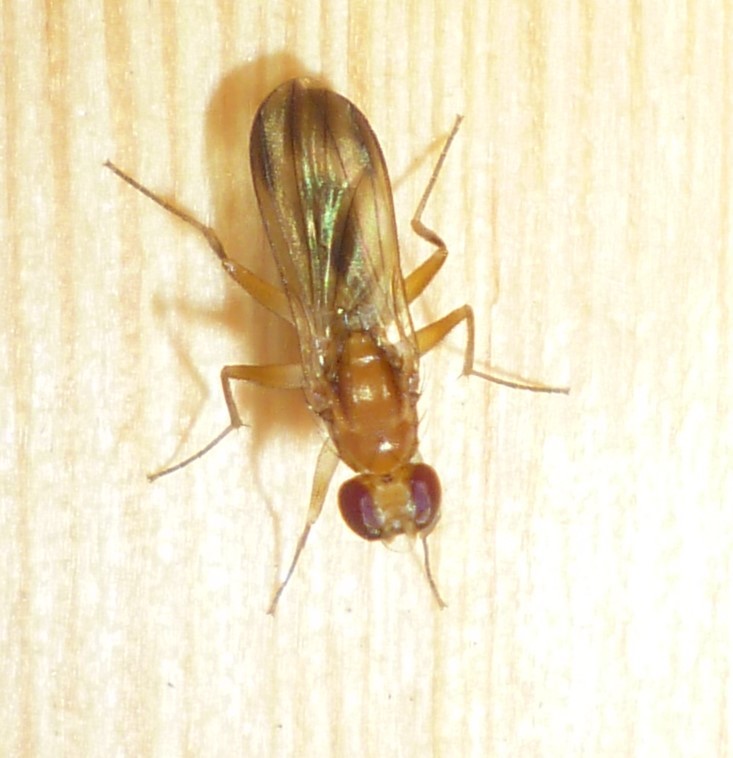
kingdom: Animalia
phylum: Arthropoda
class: Insecta
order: Diptera
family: Clusiidae
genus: Clusia
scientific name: Clusia lateralis
